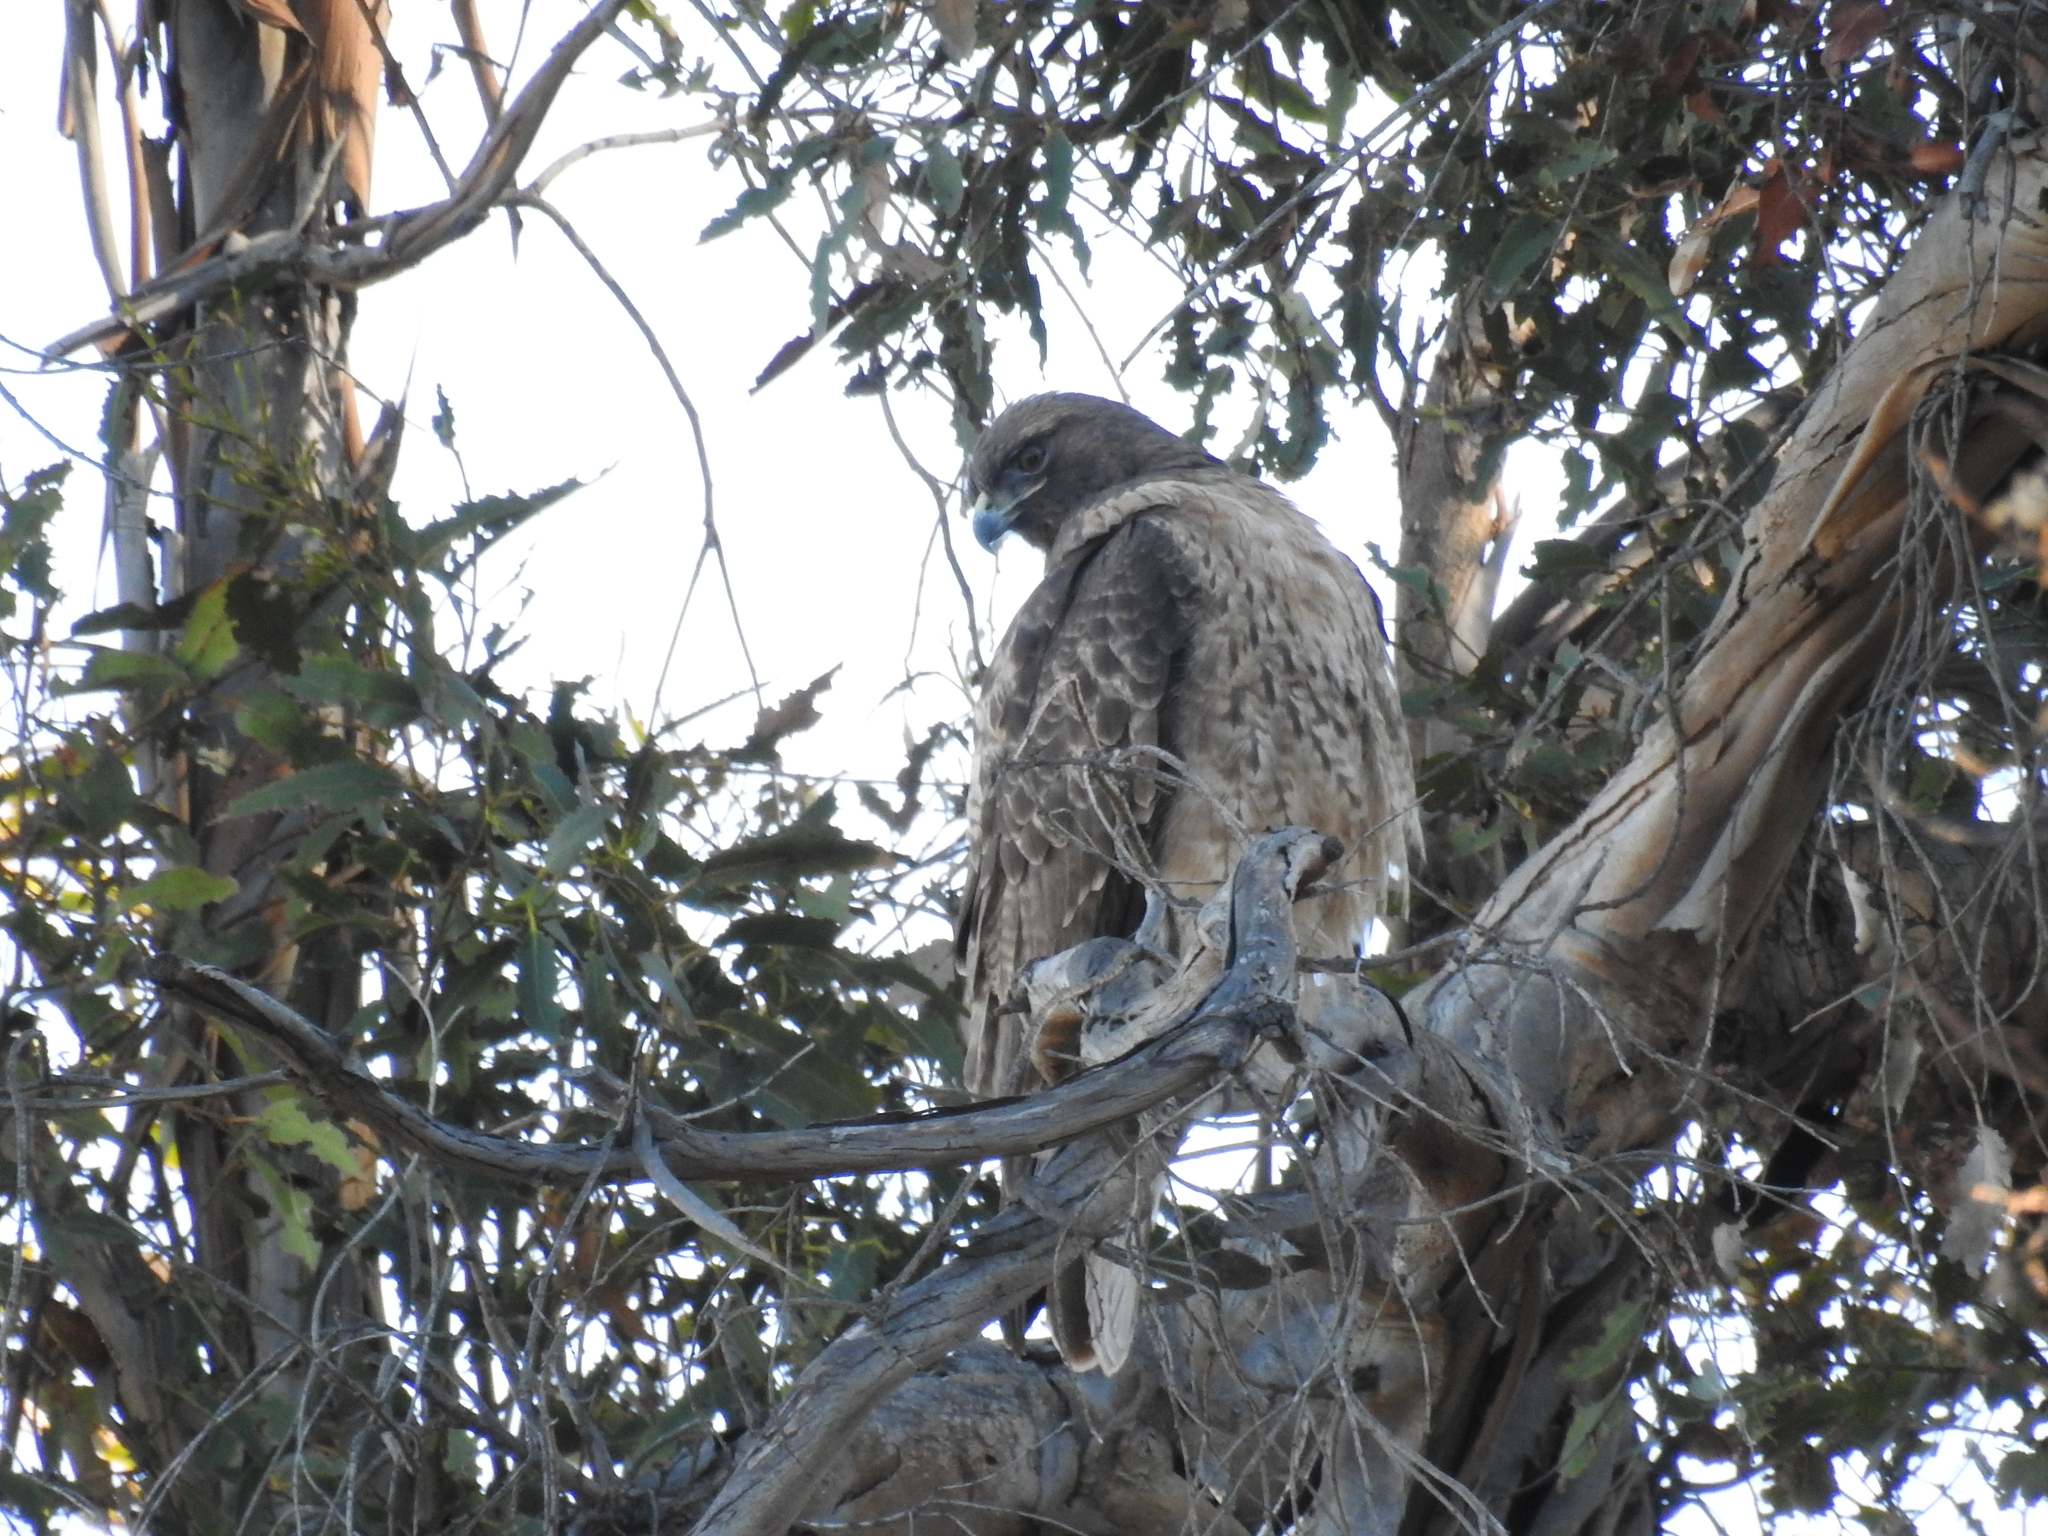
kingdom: Animalia
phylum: Chordata
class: Aves
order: Accipitriformes
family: Accipitridae
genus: Buteo
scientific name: Buteo jamaicensis
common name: Red-tailed hawk
